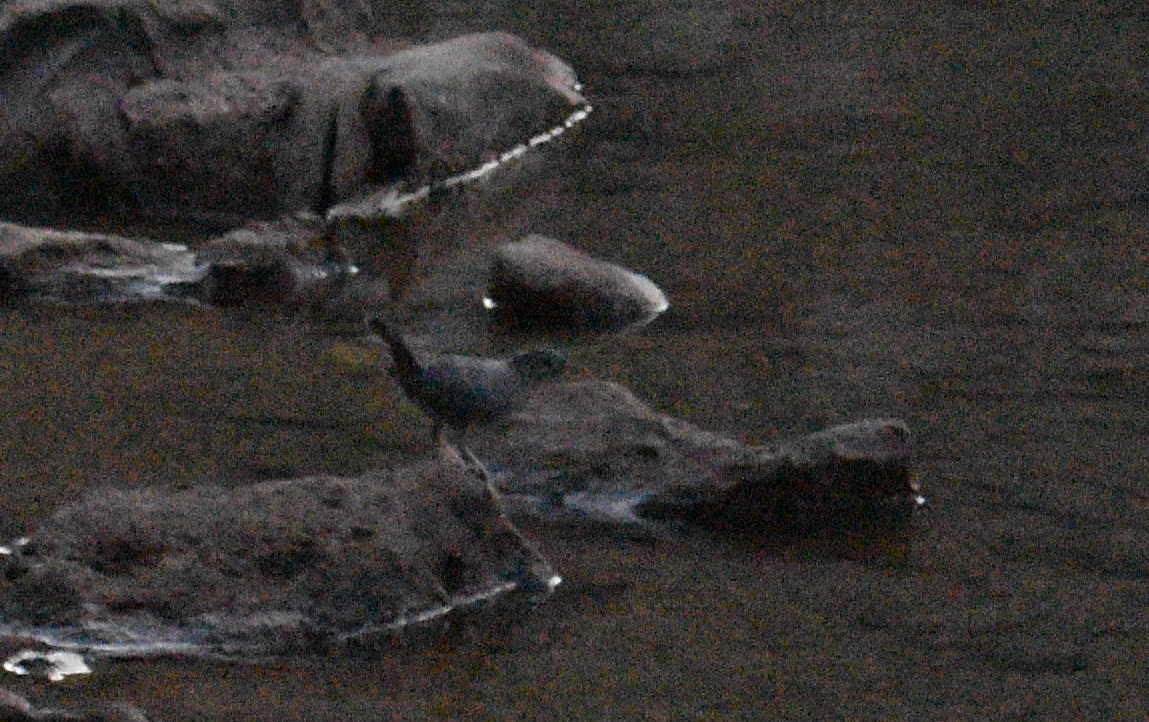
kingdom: Animalia
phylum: Chordata
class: Aves
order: Passeriformes
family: Cinclidae
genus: Cinclus
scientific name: Cinclus mexicanus
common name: American dipper
